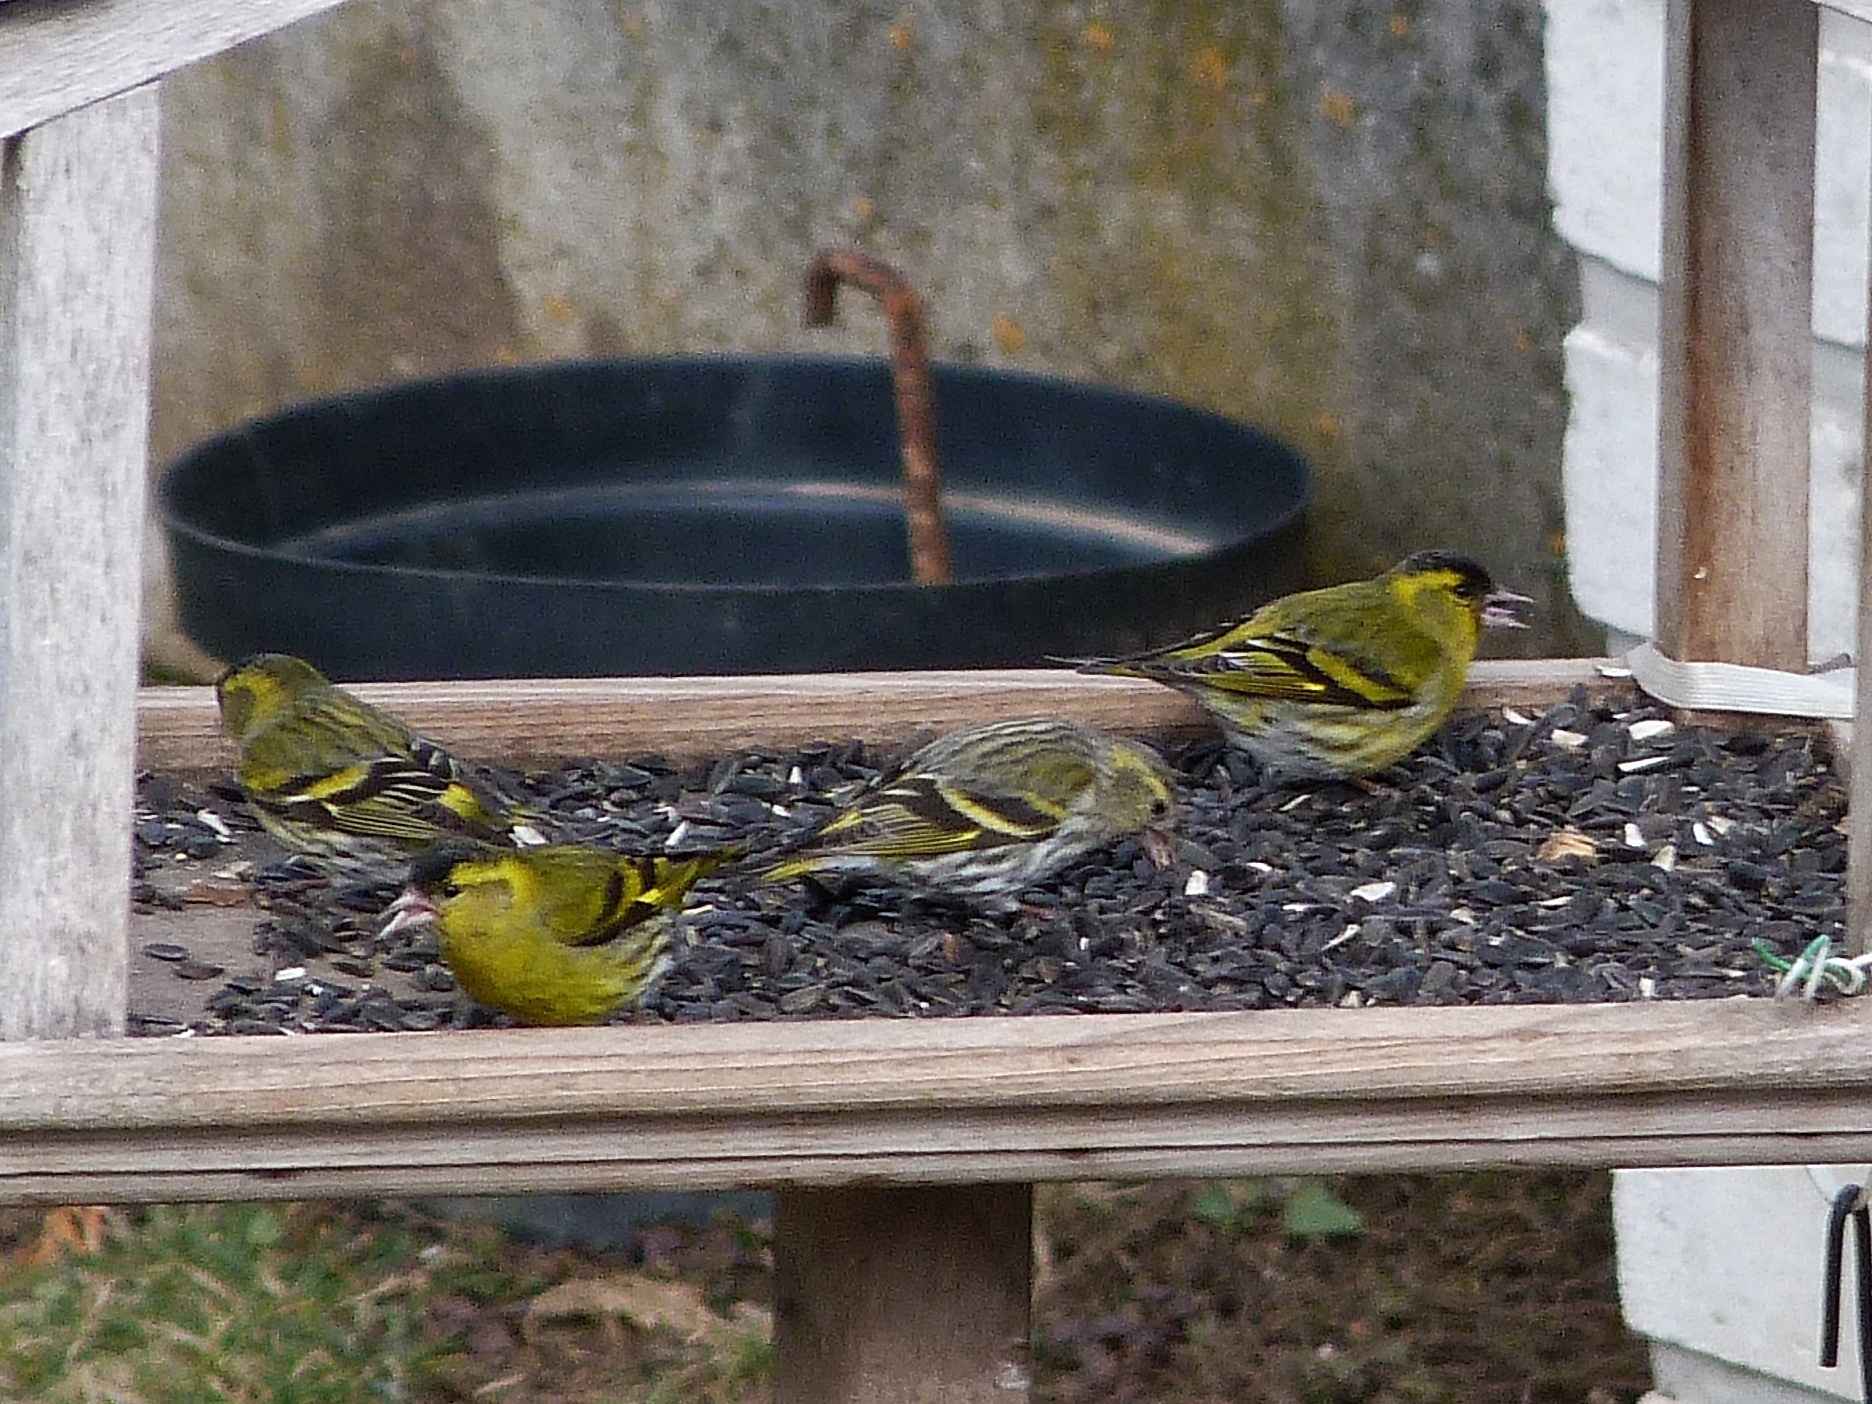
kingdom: Animalia
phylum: Chordata
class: Aves
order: Passeriformes
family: Fringillidae
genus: Spinus
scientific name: Spinus spinus
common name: Eurasian siskin
